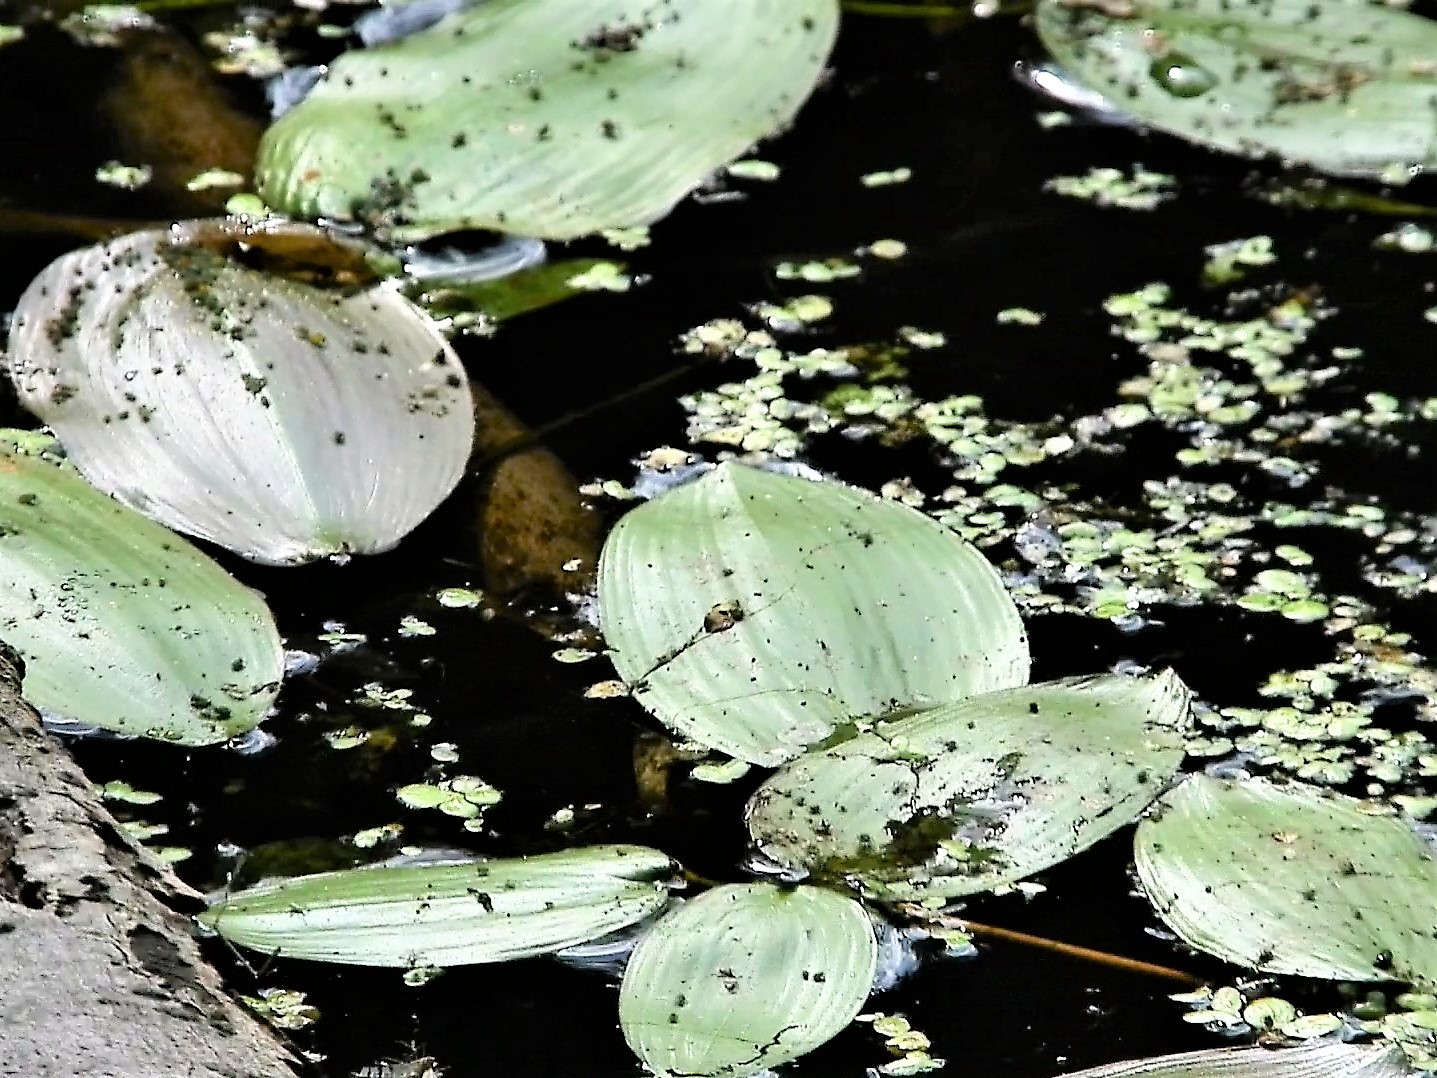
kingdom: Plantae
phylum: Tracheophyta
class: Liliopsida
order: Alismatales
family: Potamogetonaceae
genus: Potamogeton
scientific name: Potamogeton natans
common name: Broad-leaved pondweed
